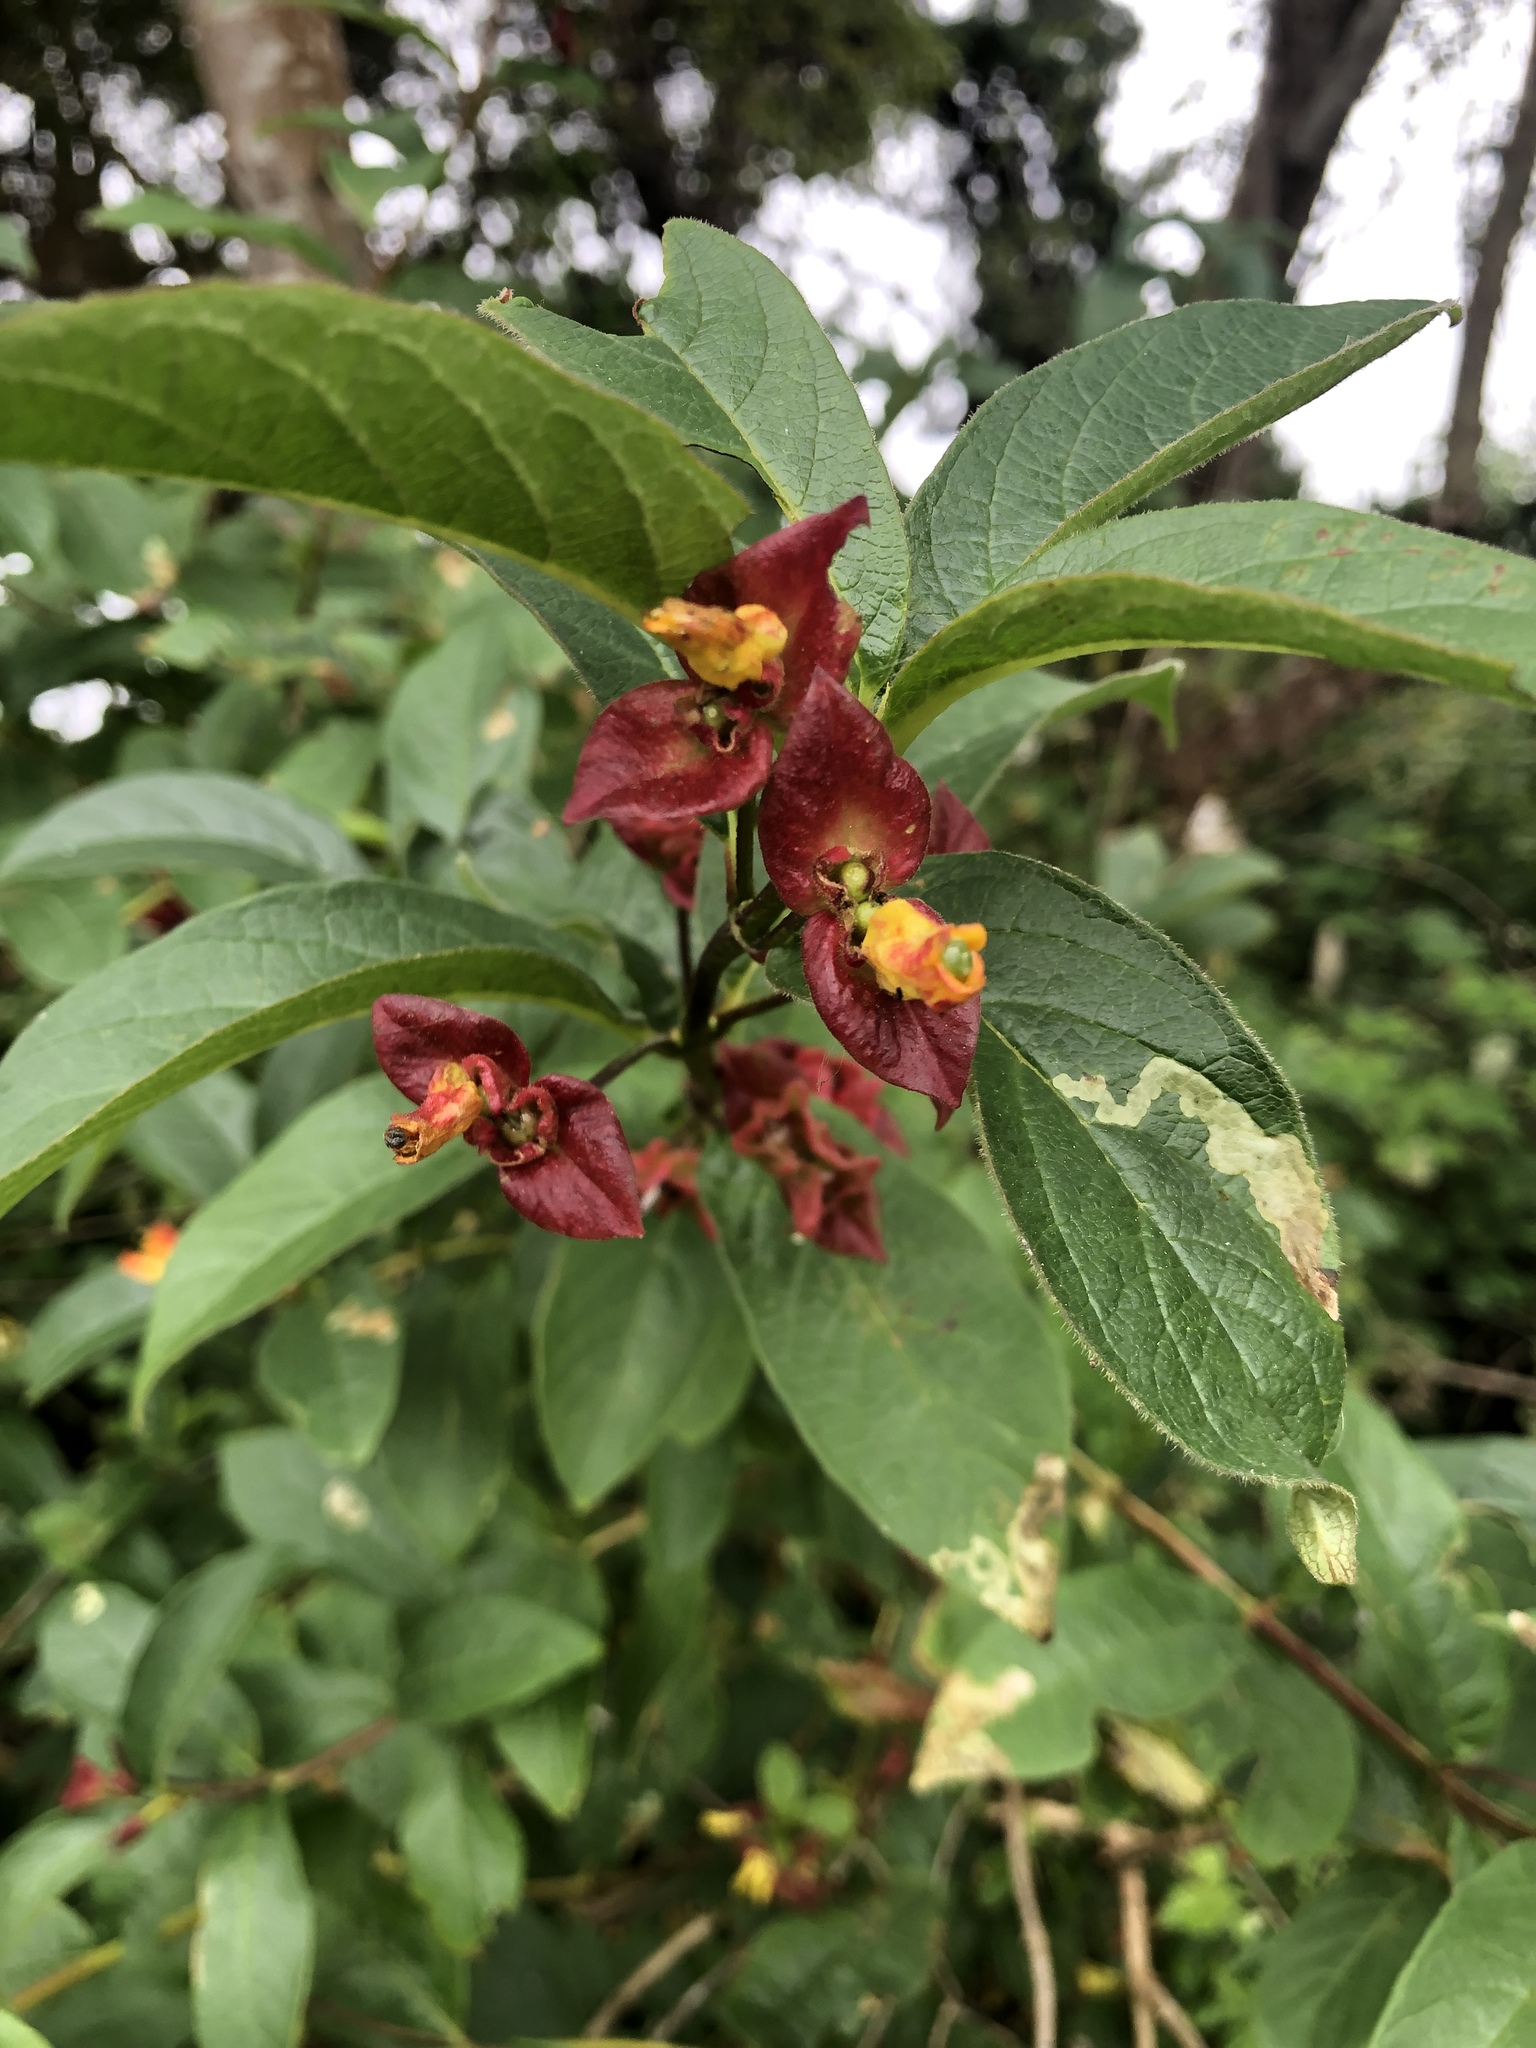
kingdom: Plantae
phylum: Tracheophyta
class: Magnoliopsida
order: Dipsacales
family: Caprifoliaceae
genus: Lonicera
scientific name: Lonicera involucrata
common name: Californian honeysuckle
